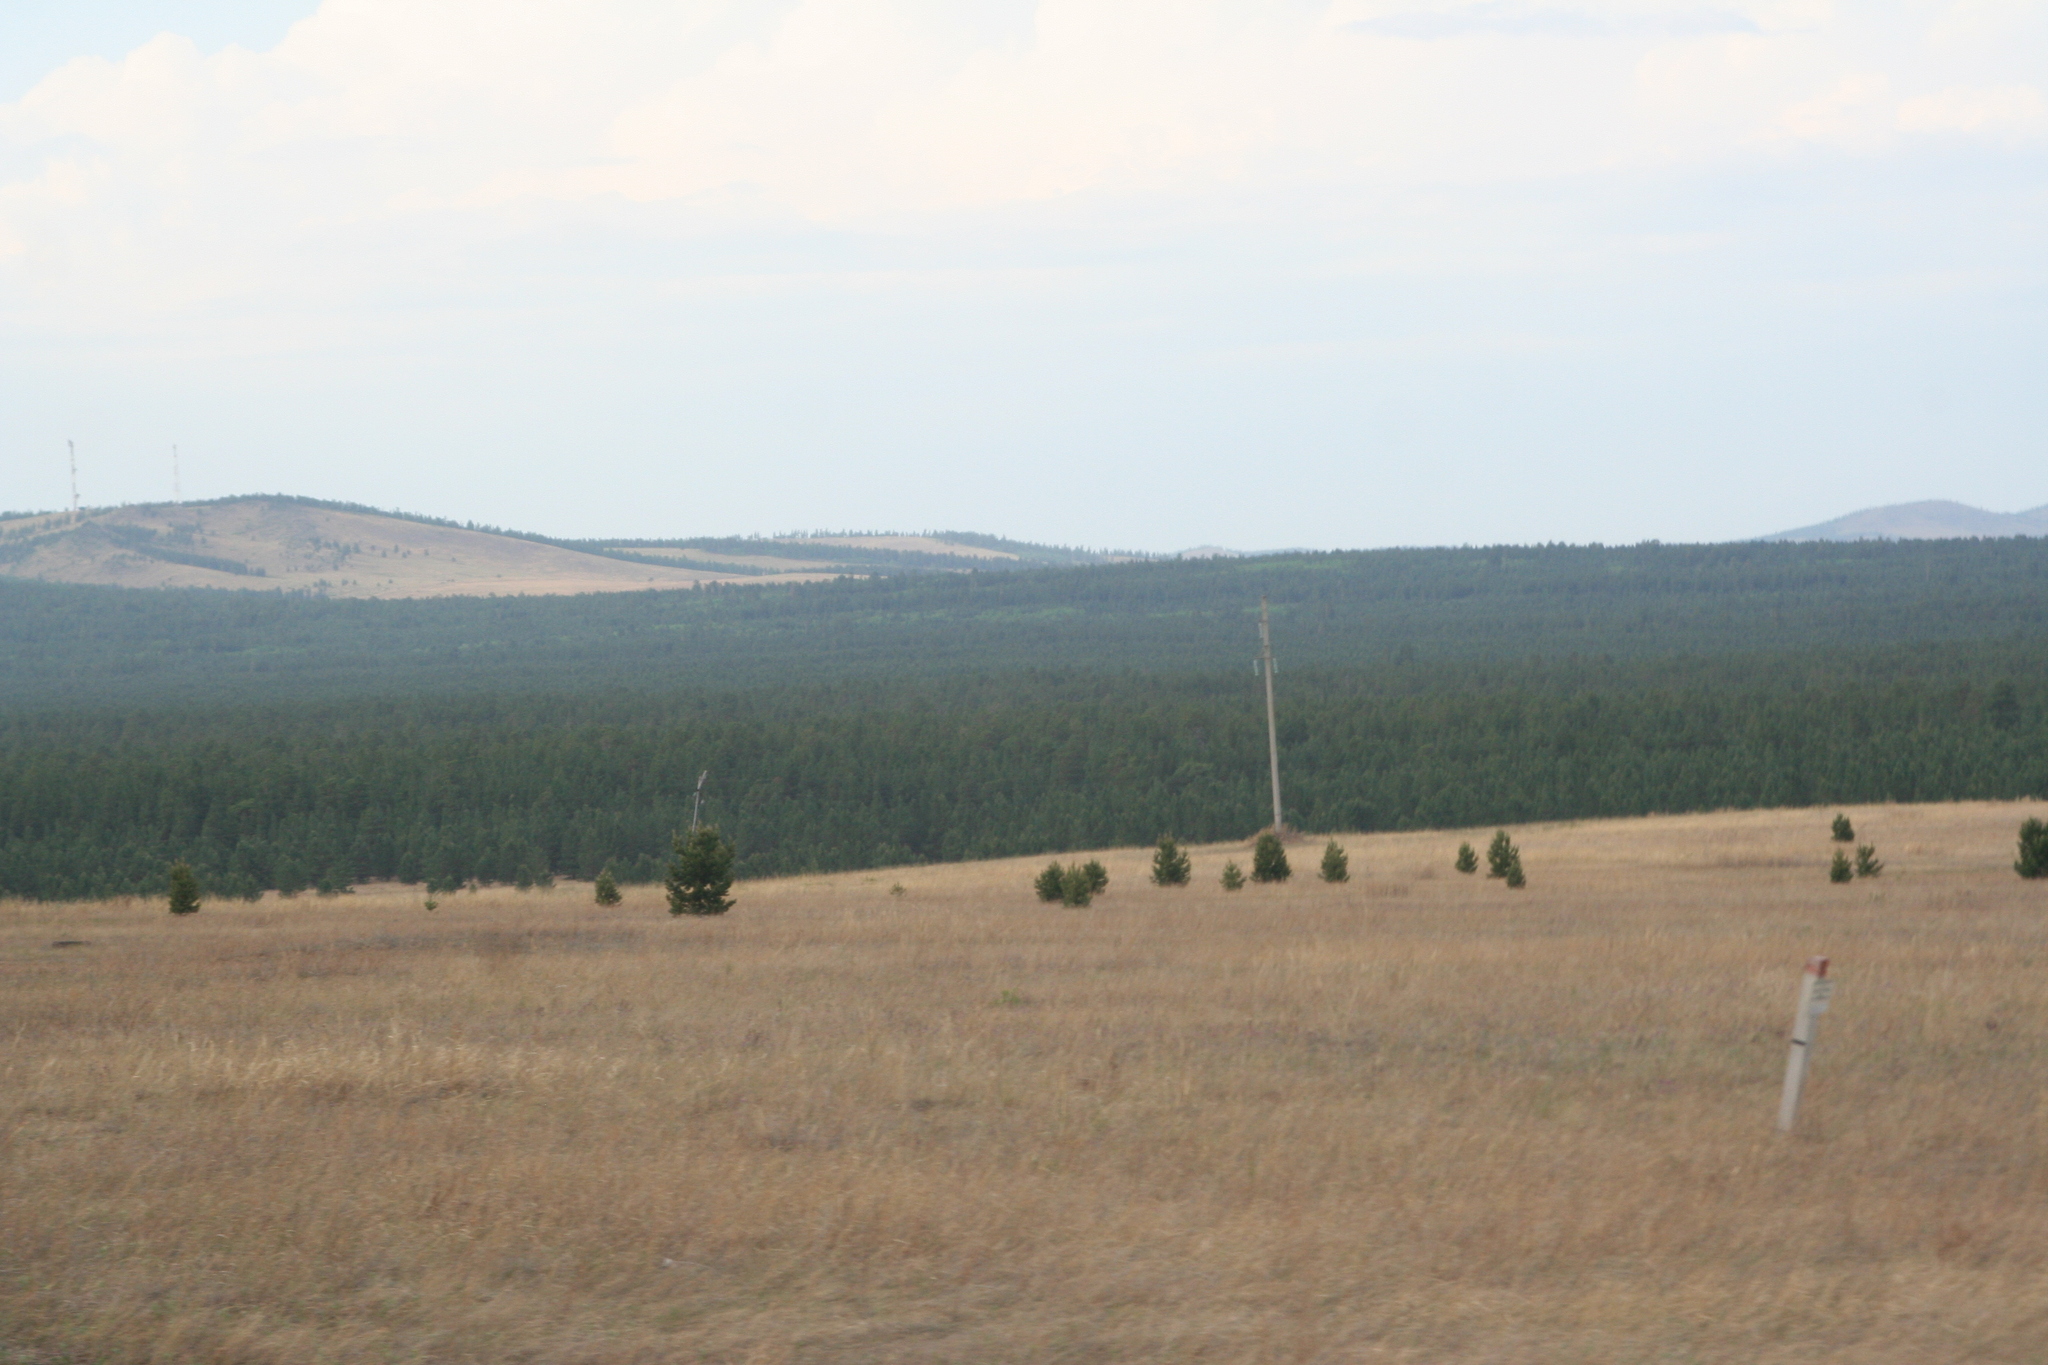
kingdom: Plantae
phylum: Tracheophyta
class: Pinopsida
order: Pinales
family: Pinaceae
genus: Pinus
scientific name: Pinus sylvestris
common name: Scots pine
